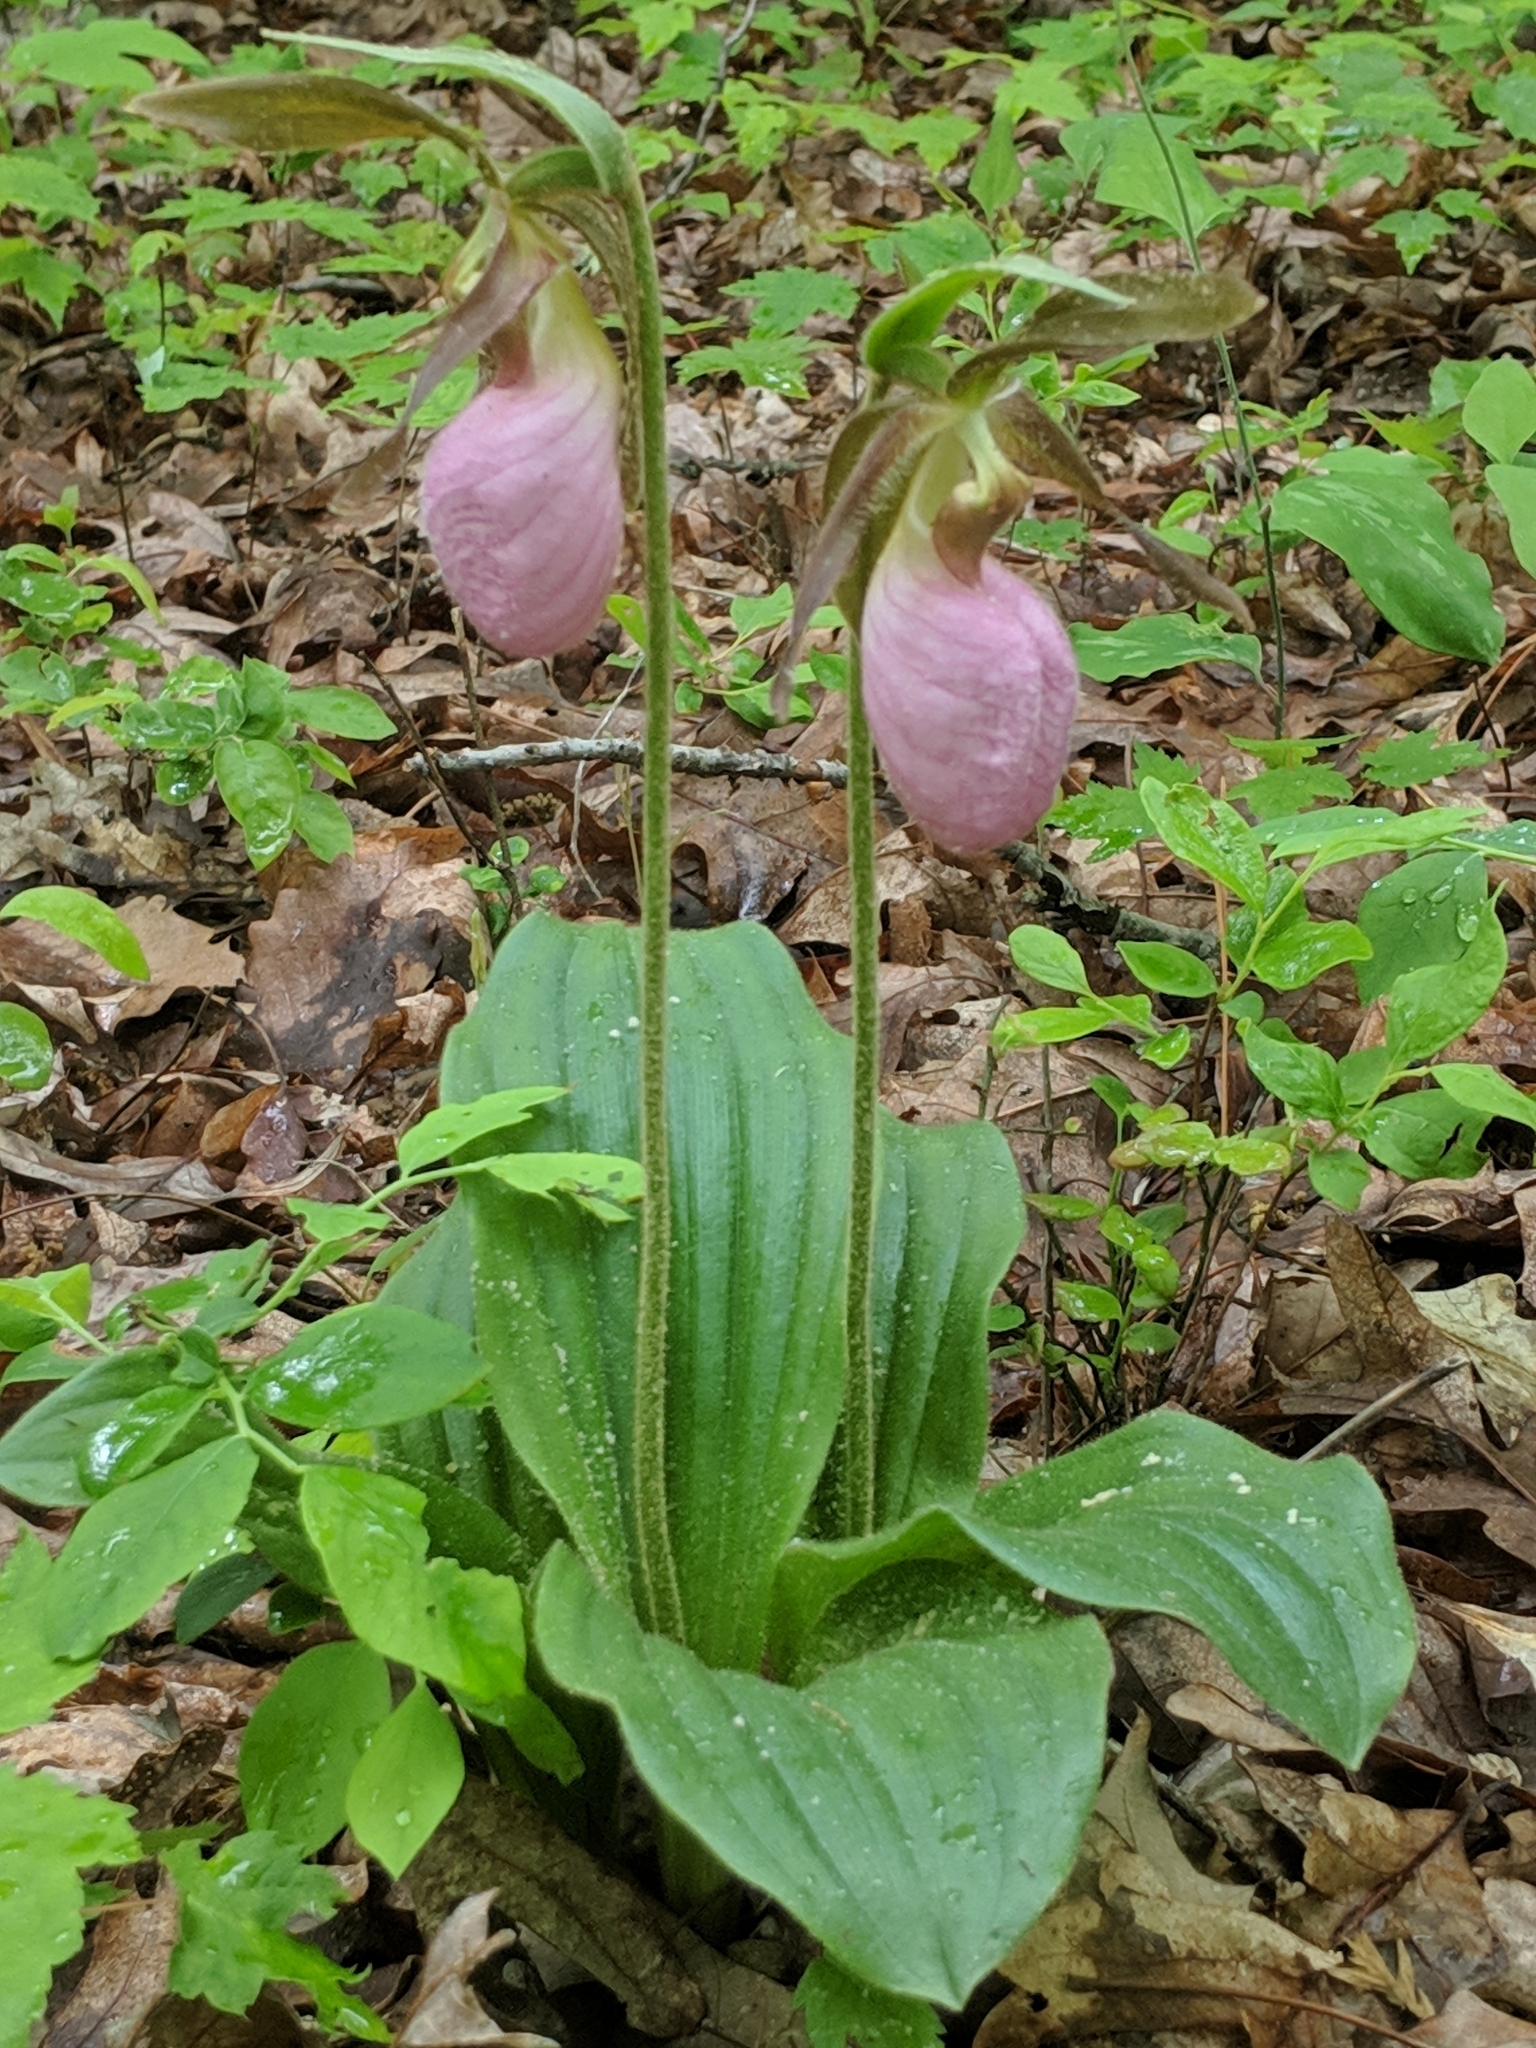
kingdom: Plantae
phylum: Tracheophyta
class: Liliopsida
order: Asparagales
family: Orchidaceae
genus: Cypripedium
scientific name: Cypripedium acaule
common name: Pink lady's-slipper
